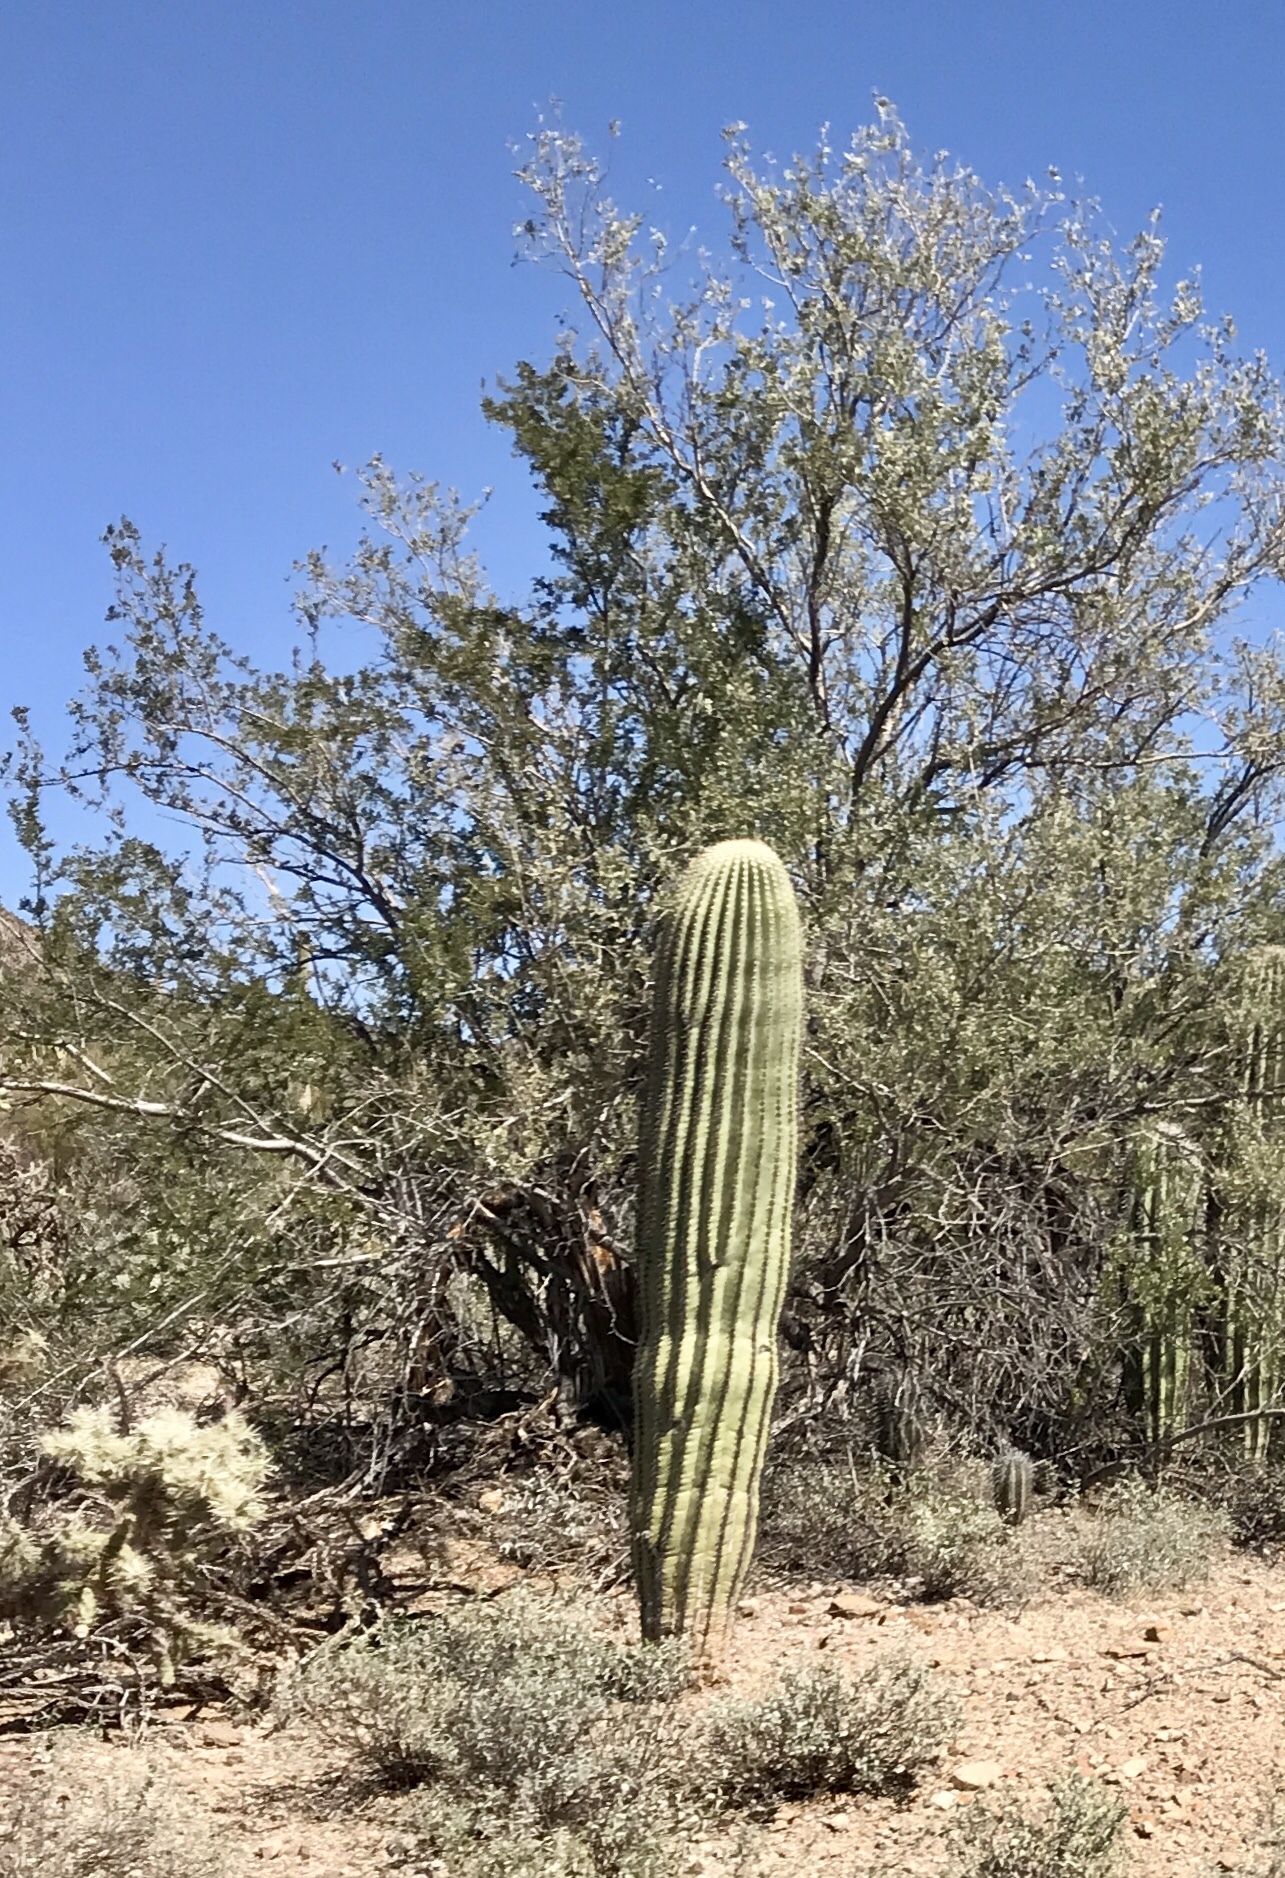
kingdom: Plantae
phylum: Tracheophyta
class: Magnoliopsida
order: Caryophyllales
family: Cactaceae
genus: Carnegiea
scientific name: Carnegiea gigantea
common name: Saguaro
